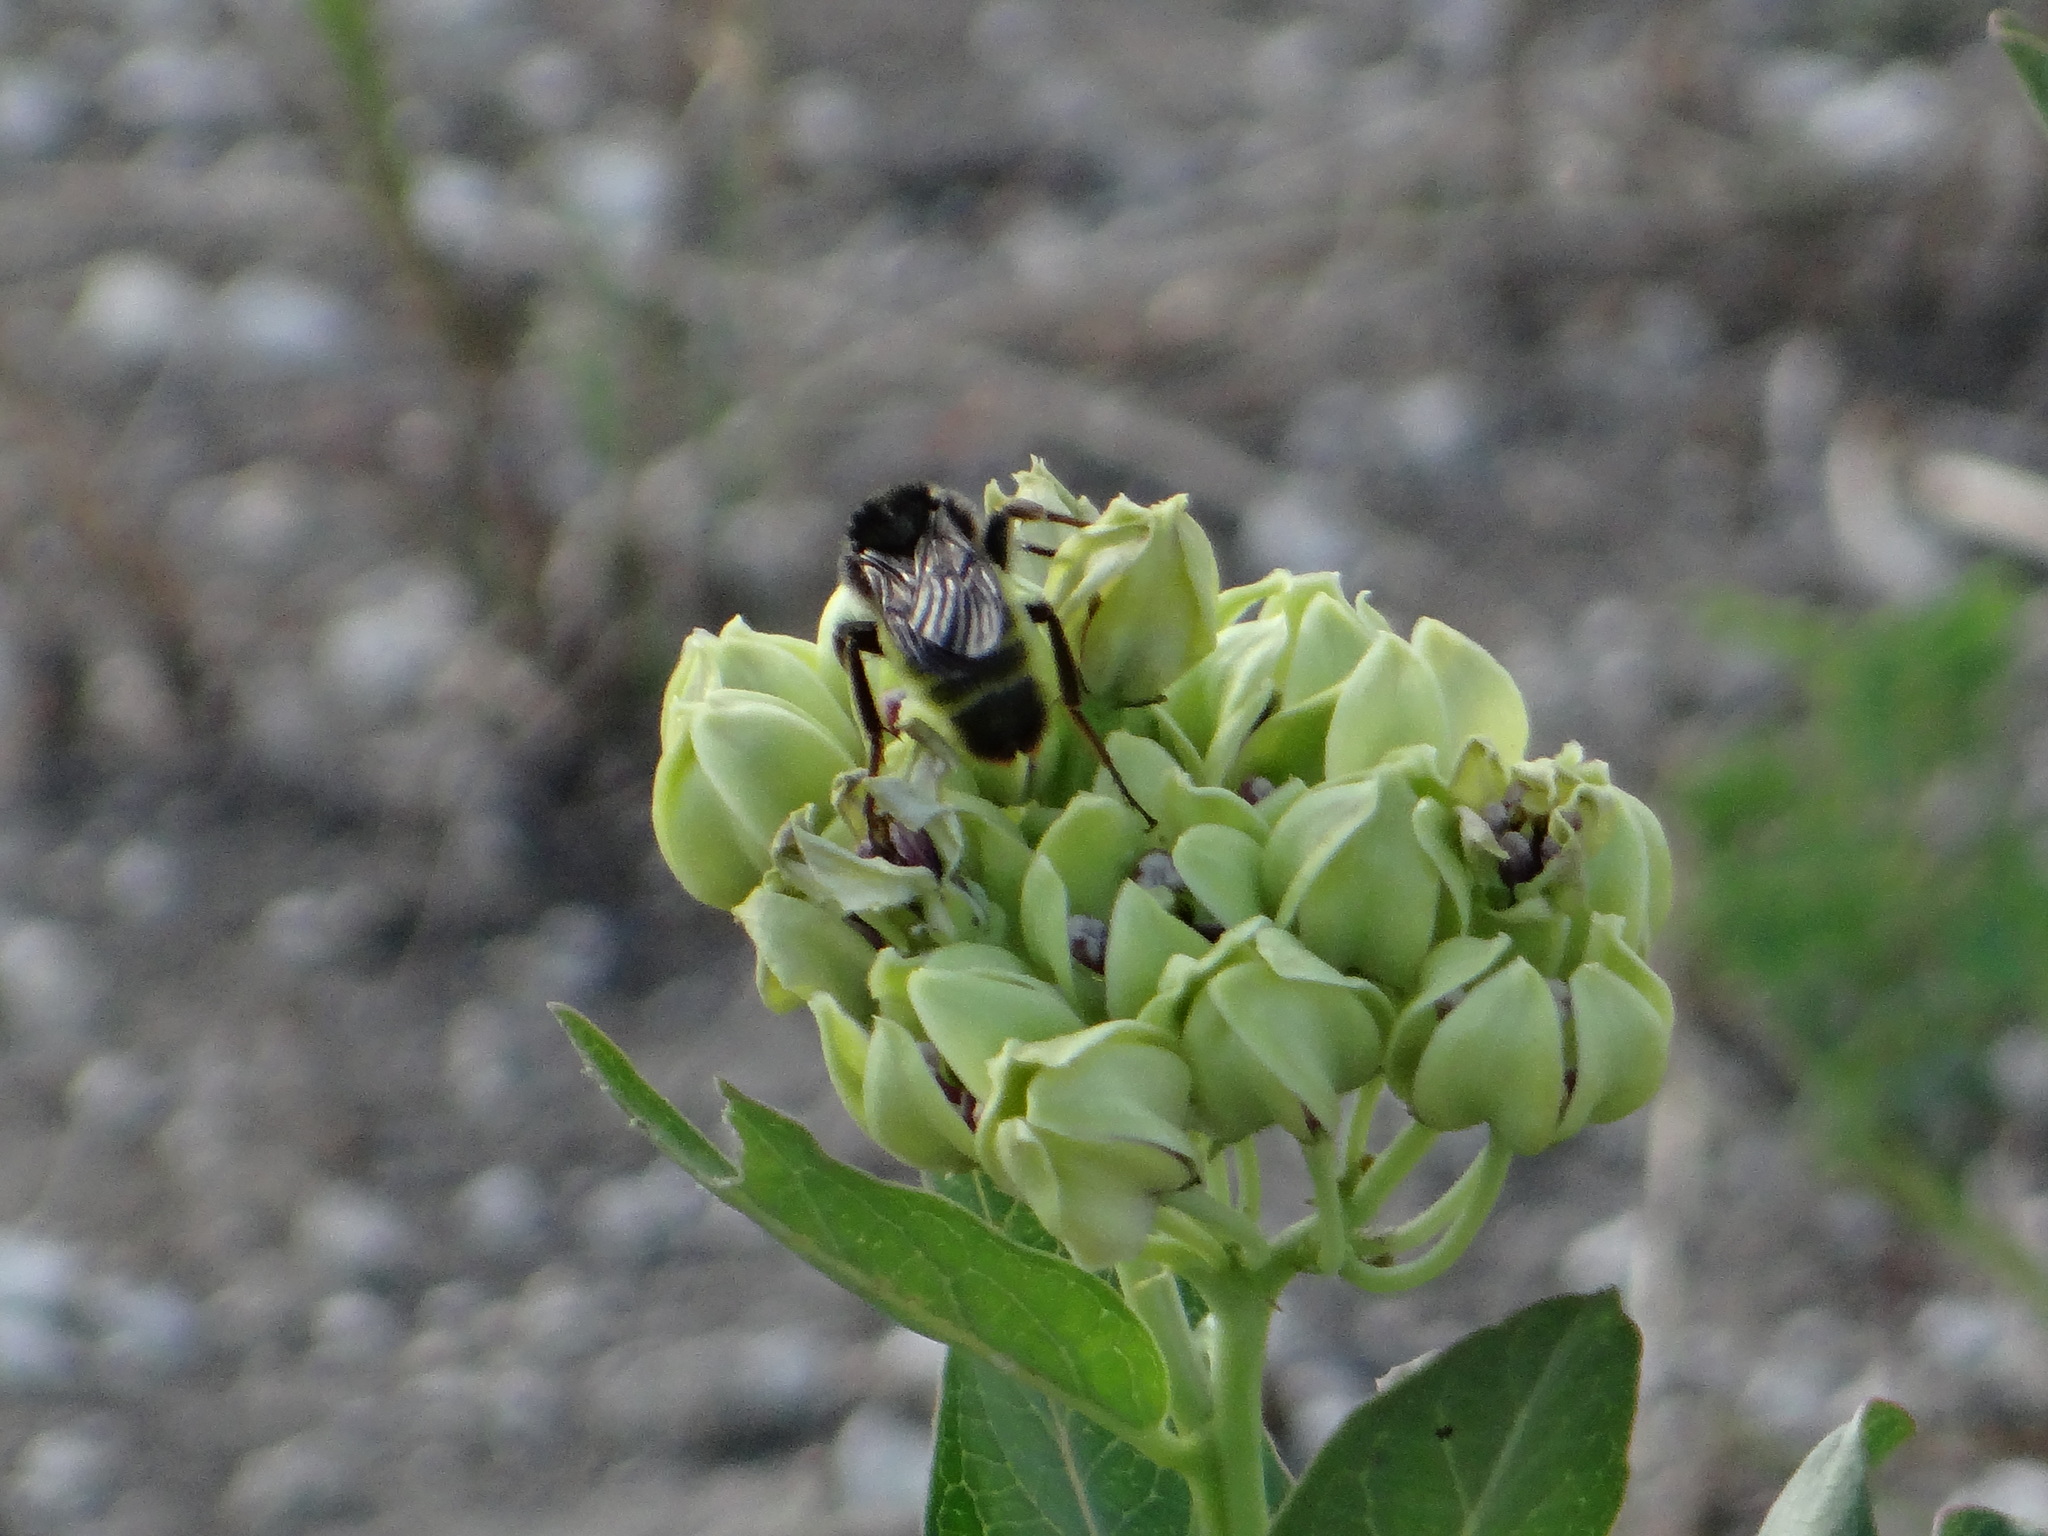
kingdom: Animalia
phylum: Arthropoda
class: Insecta
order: Hymenoptera
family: Apidae
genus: Bombus
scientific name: Bombus pensylvanicus
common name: Bumble bee
